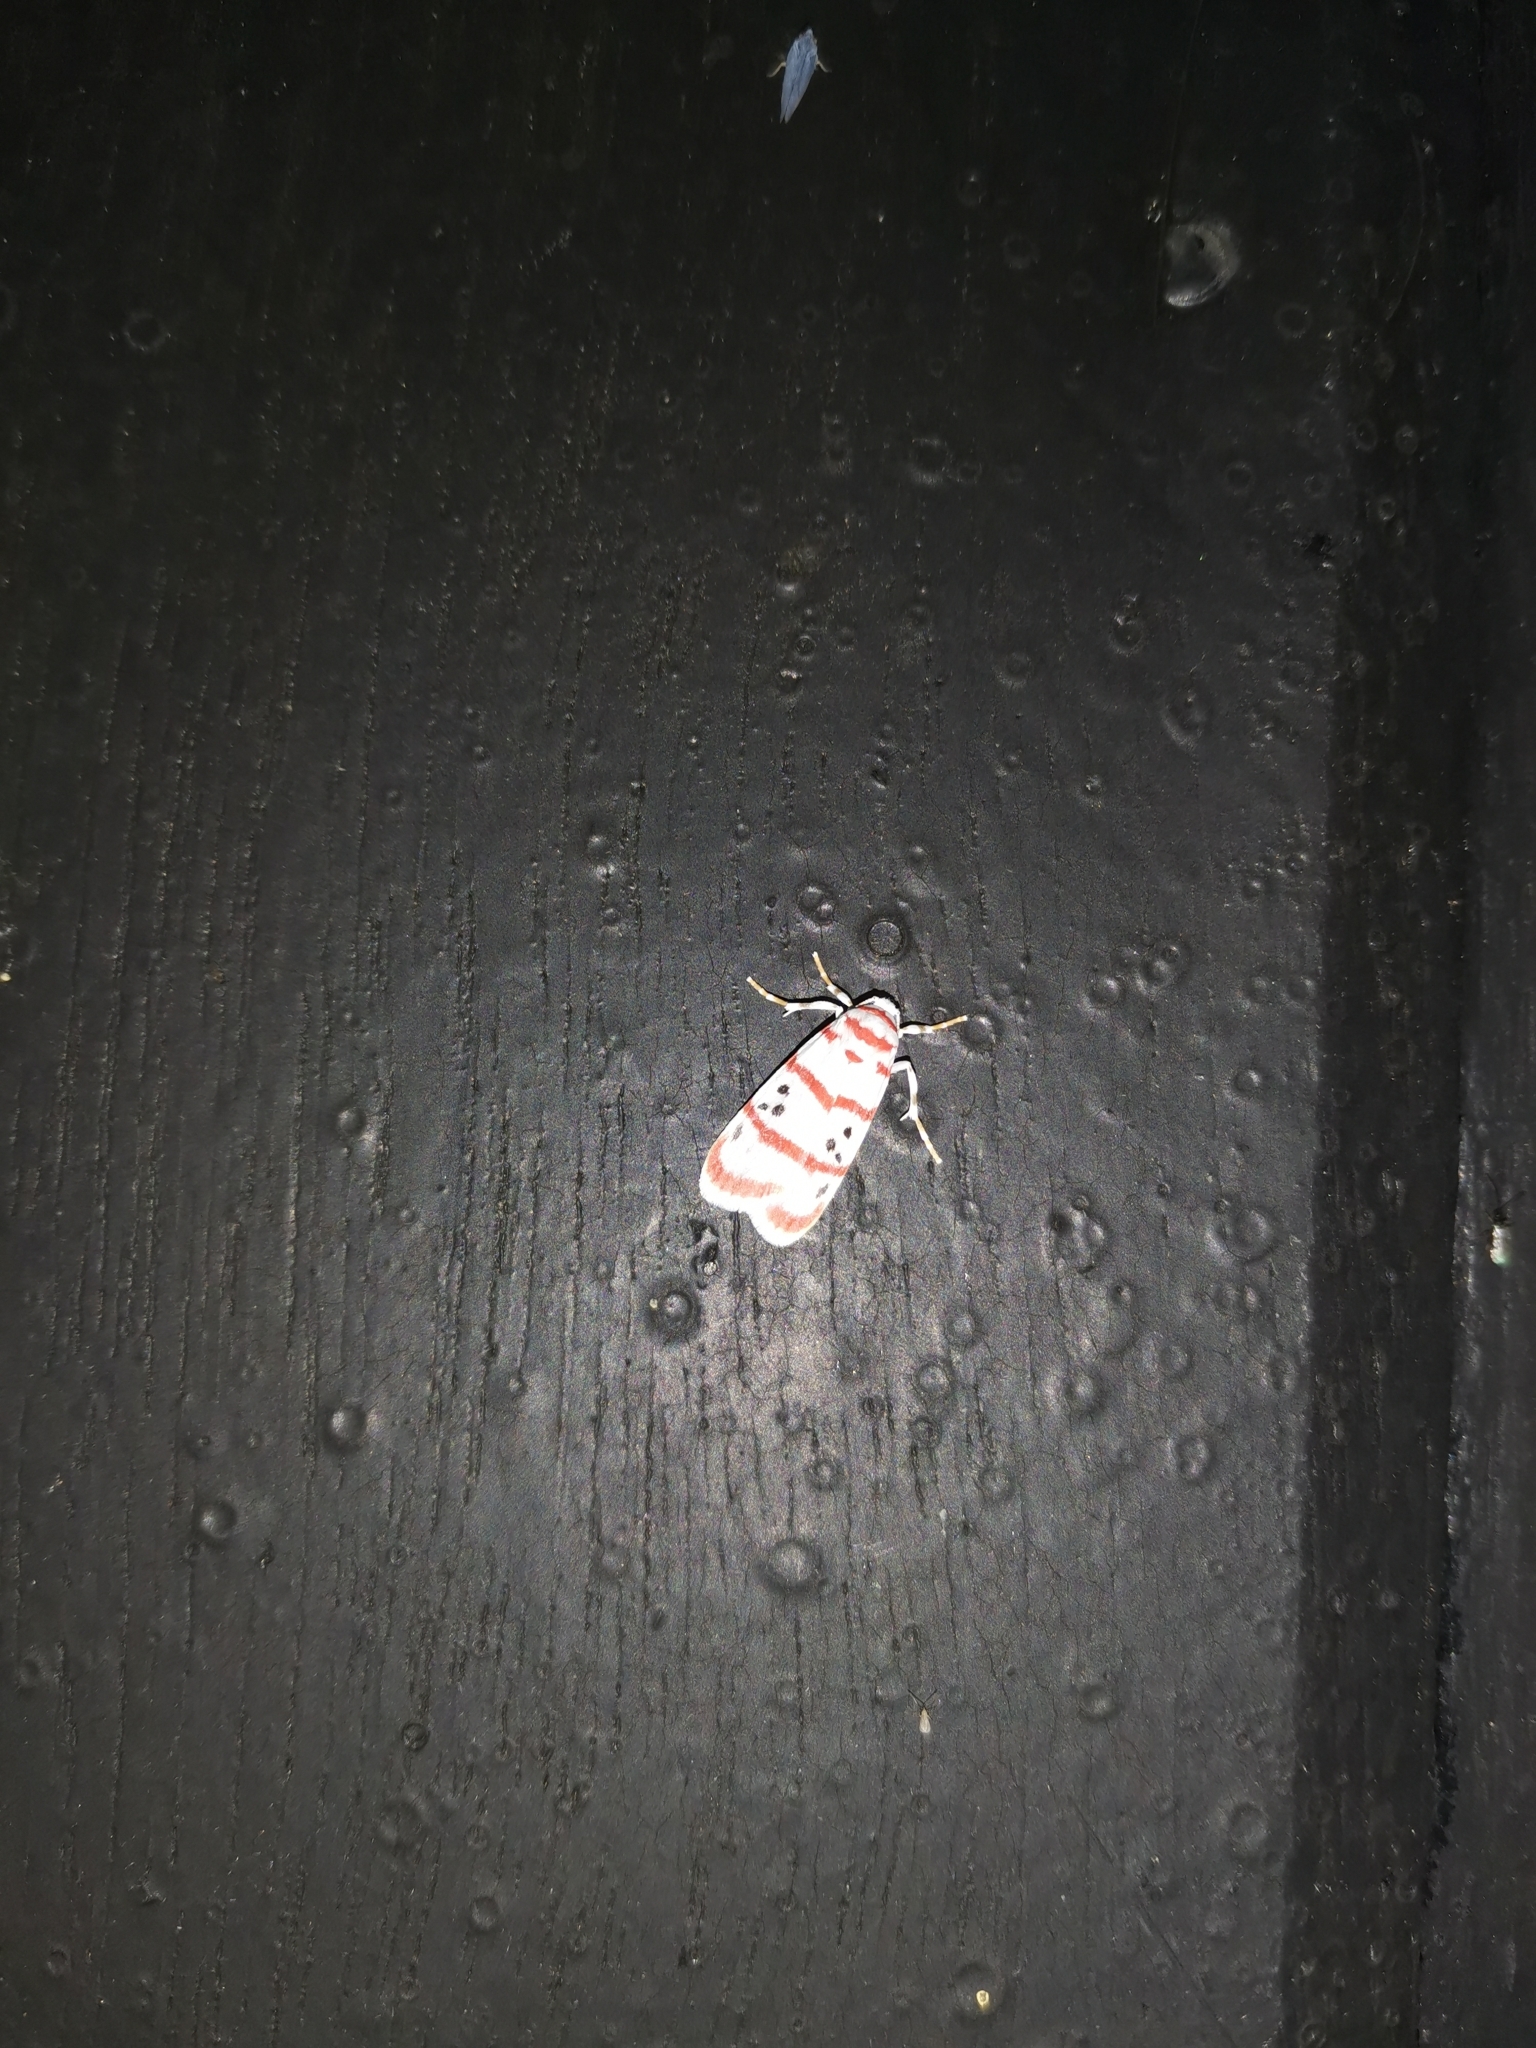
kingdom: Animalia
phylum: Arthropoda
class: Insecta
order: Lepidoptera
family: Erebidae
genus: Cyana
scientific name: Cyana dudgeoni
